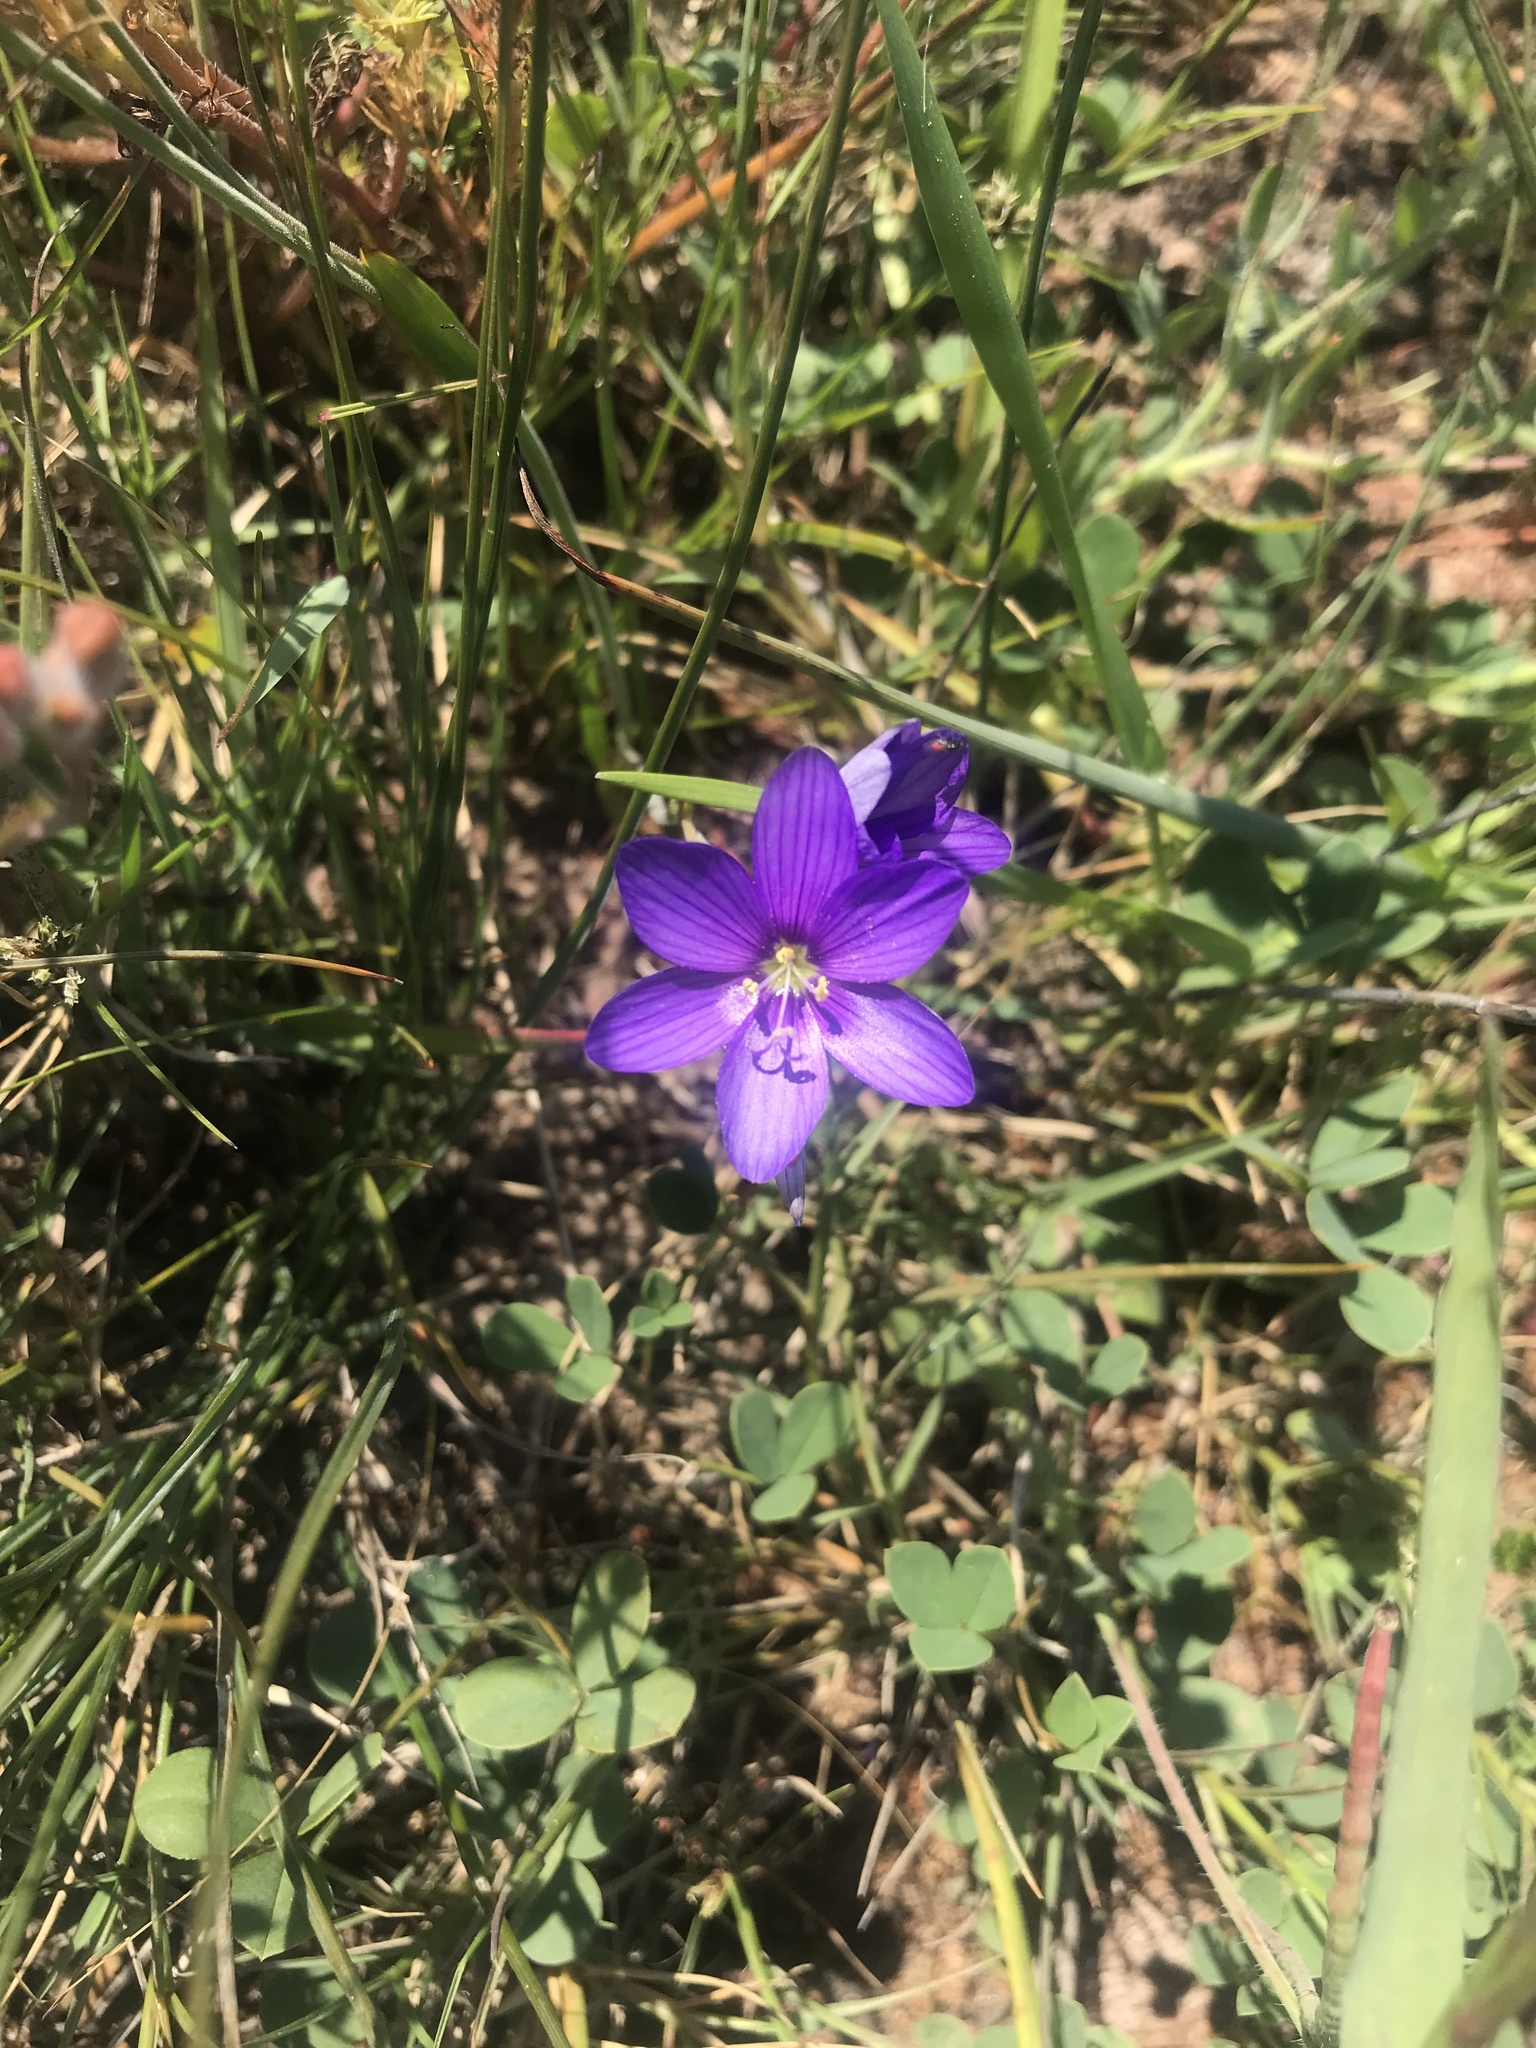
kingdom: Plantae
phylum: Tracheophyta
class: Liliopsida
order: Asparagales
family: Iridaceae
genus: Geissorhiza
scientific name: Geissorhiza aspera
